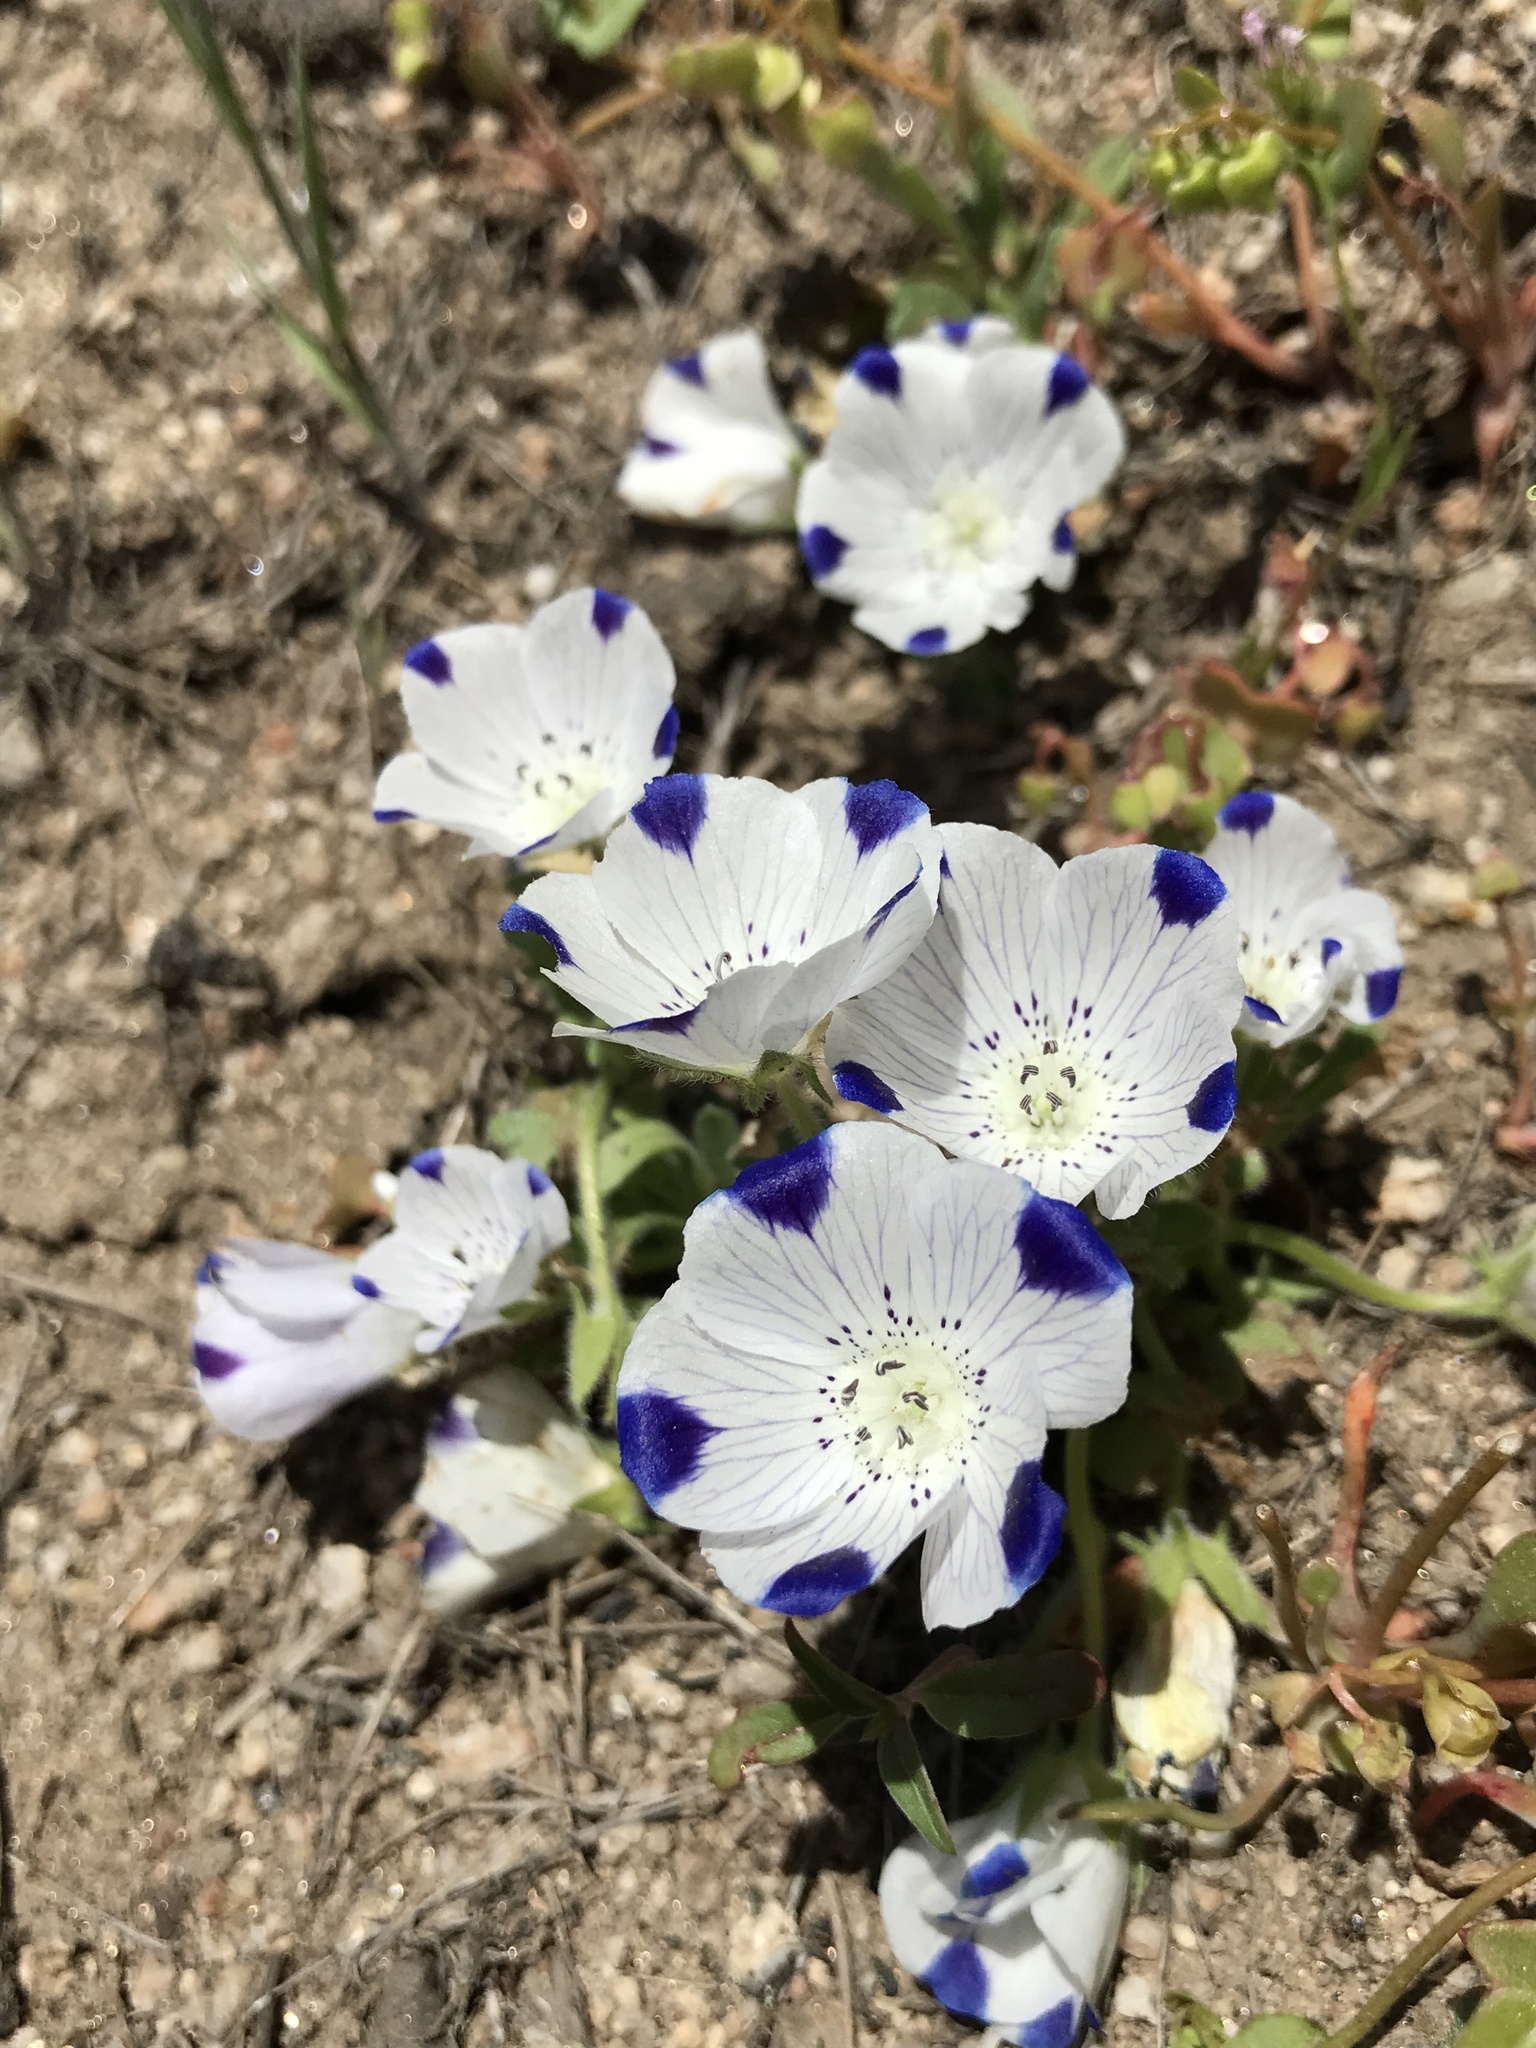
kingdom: Plantae
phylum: Tracheophyta
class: Magnoliopsida
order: Boraginales
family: Hydrophyllaceae
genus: Nemophila
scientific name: Nemophila maculata
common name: Fivespot
